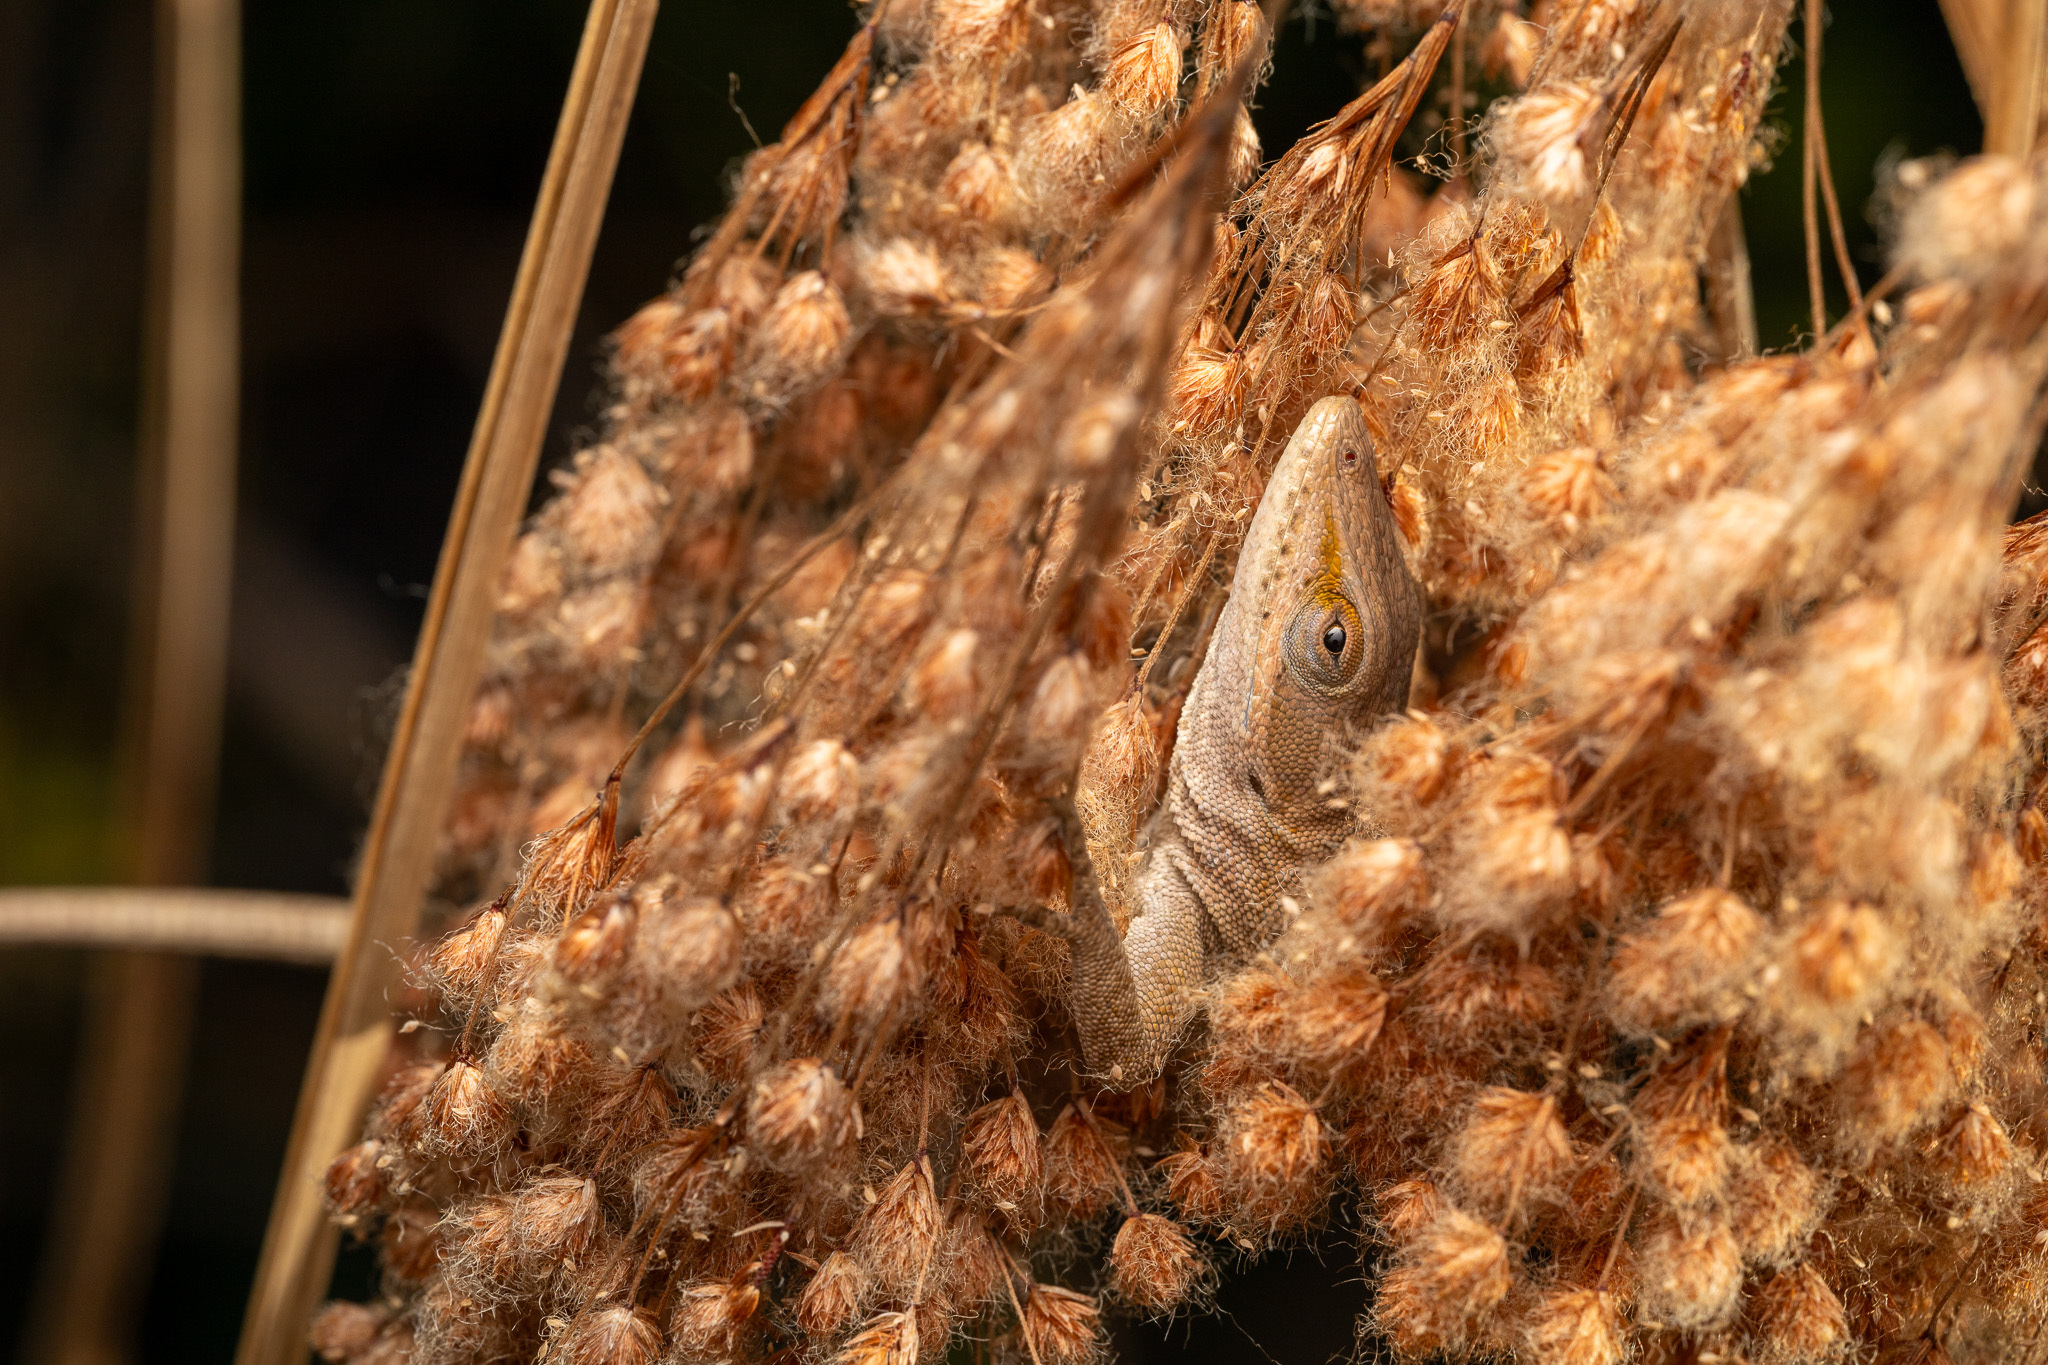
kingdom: Animalia
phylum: Chordata
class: Squamata
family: Dactyloidae
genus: Anolis
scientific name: Anolis carolinensis
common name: Green anole
